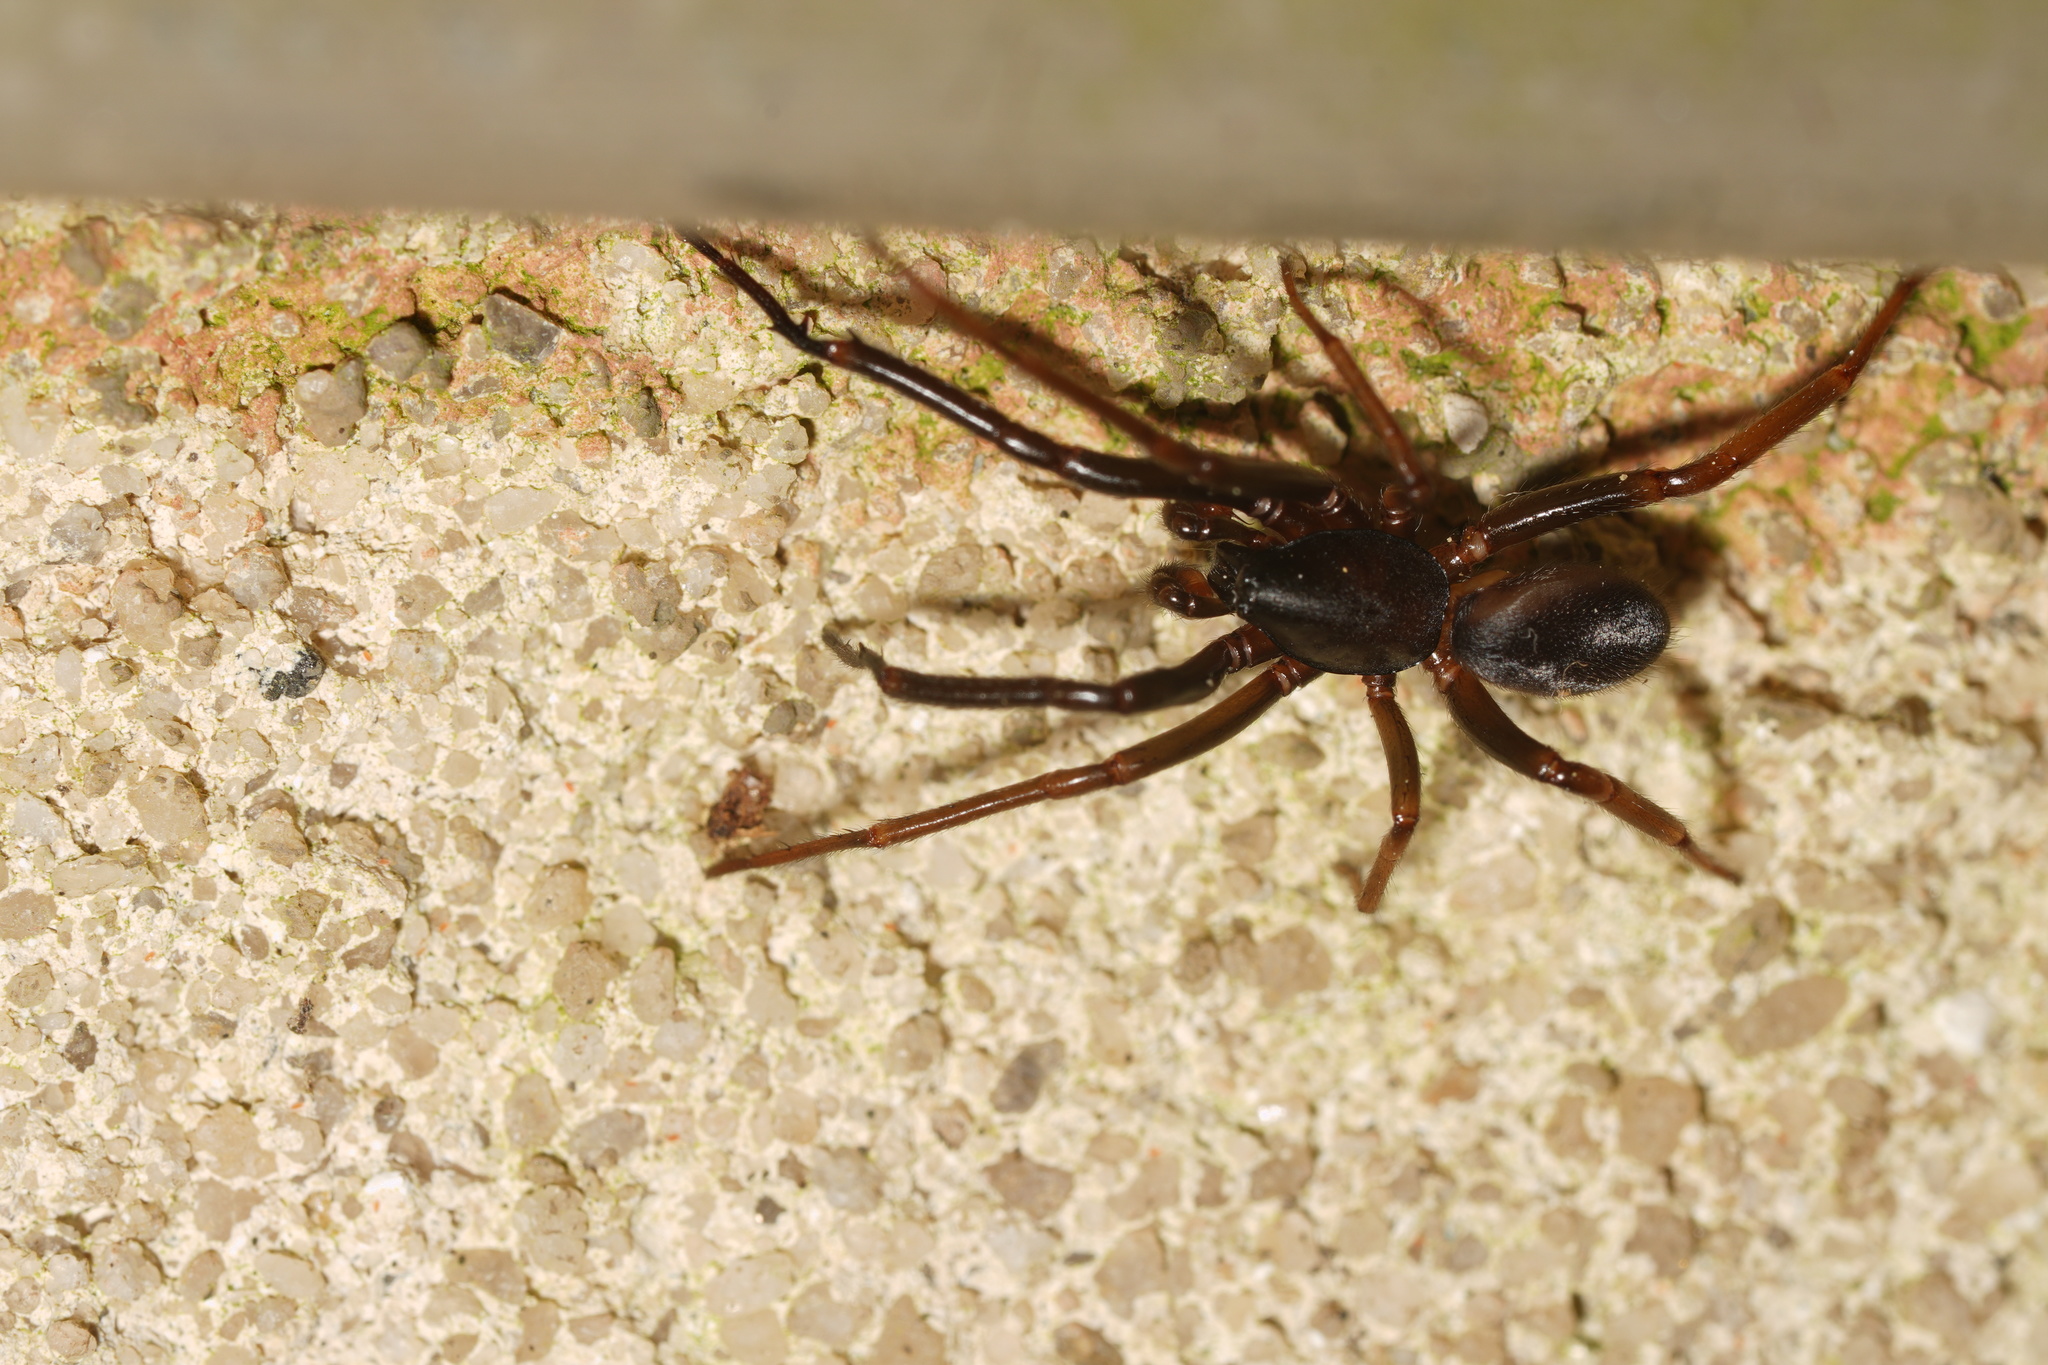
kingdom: Animalia
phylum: Arthropoda
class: Arachnida
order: Araneae
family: Segestriidae
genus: Ariadna
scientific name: Ariadna bicolor
